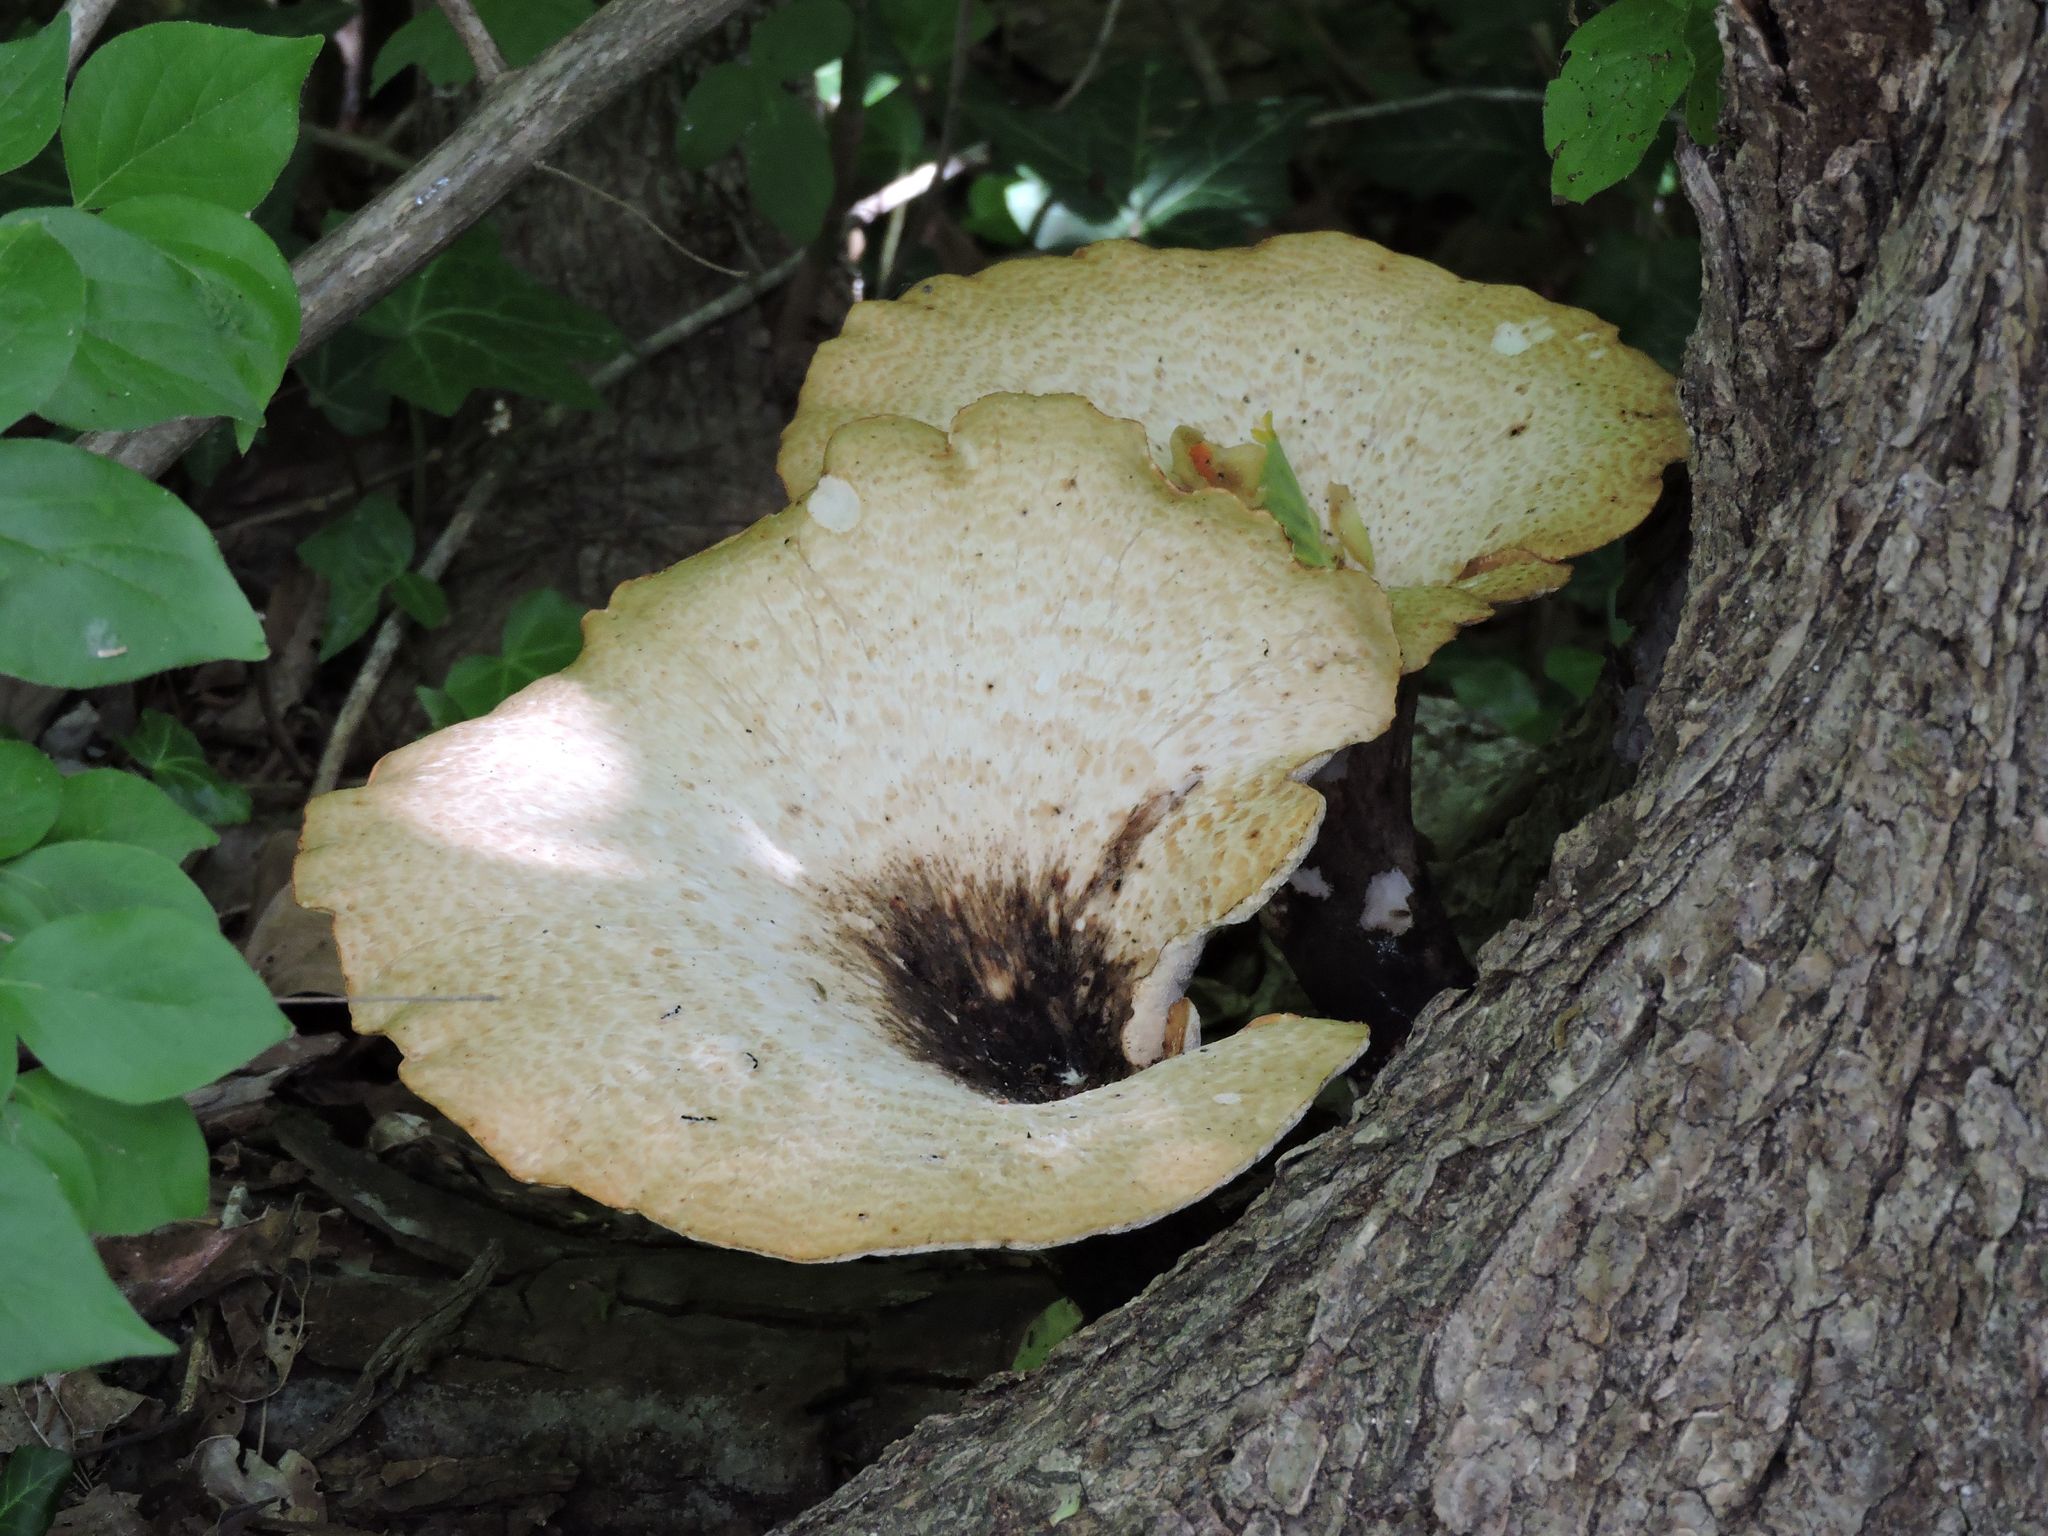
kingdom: Fungi
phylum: Basidiomycota
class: Agaricomycetes
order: Polyporales
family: Polyporaceae
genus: Cerioporus
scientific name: Cerioporus squamosus
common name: Dryad's saddle
